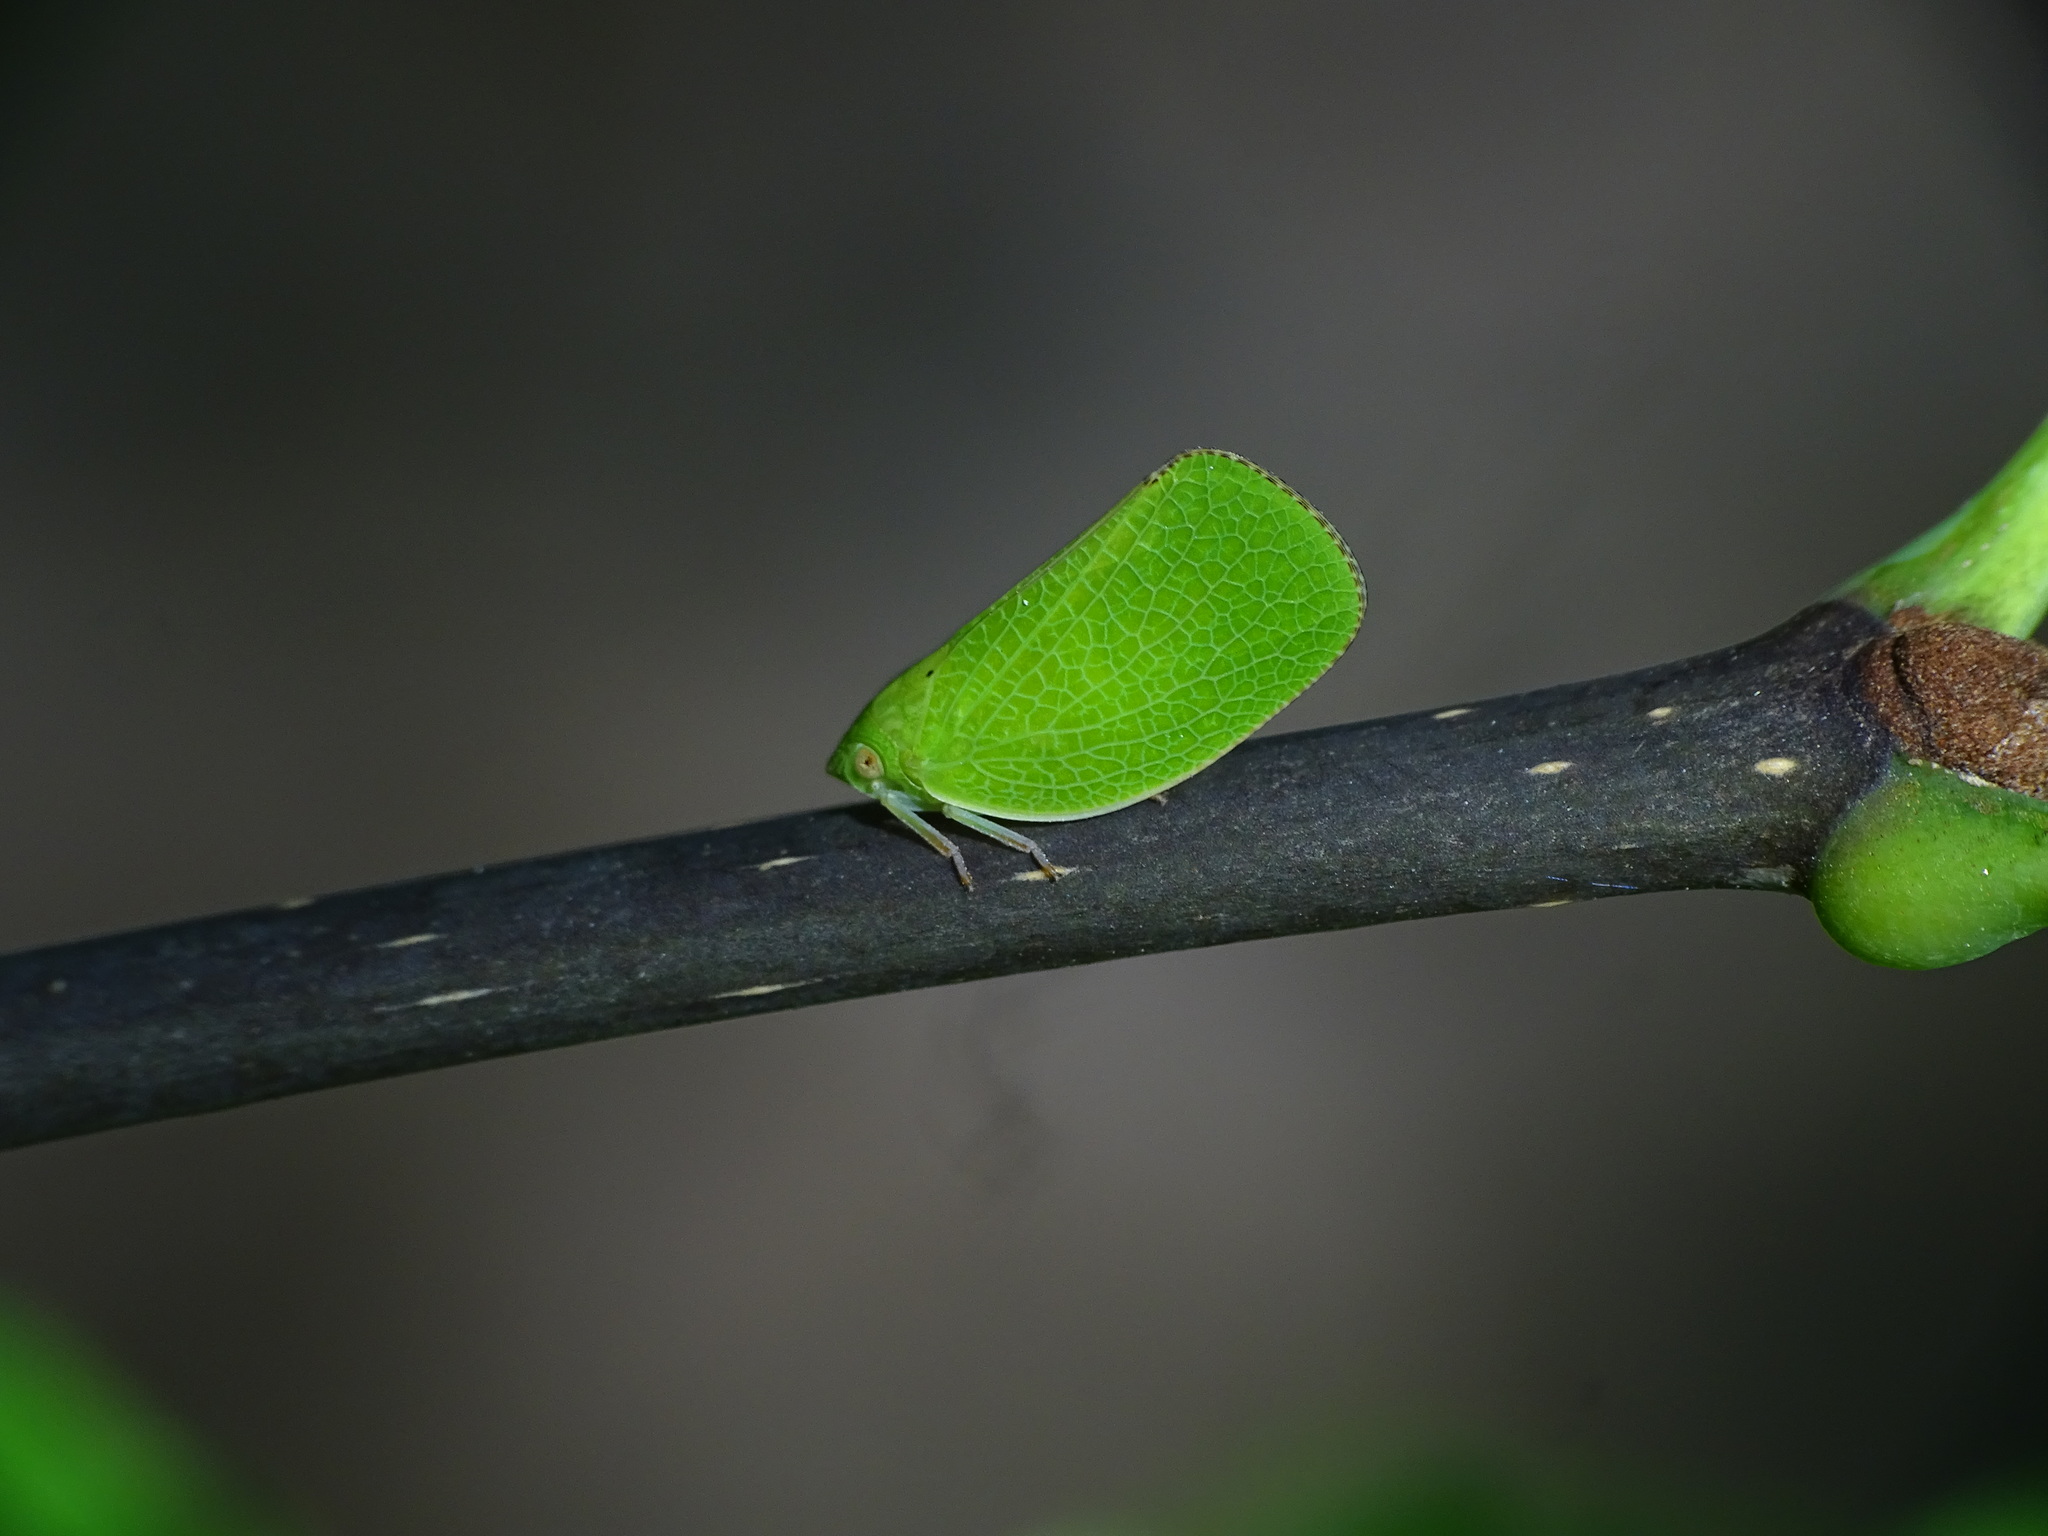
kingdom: Animalia
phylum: Arthropoda
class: Insecta
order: Hemiptera
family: Acanaloniidae
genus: Acanalonia
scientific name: Acanalonia conica
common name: Green cone-headed planthopper
